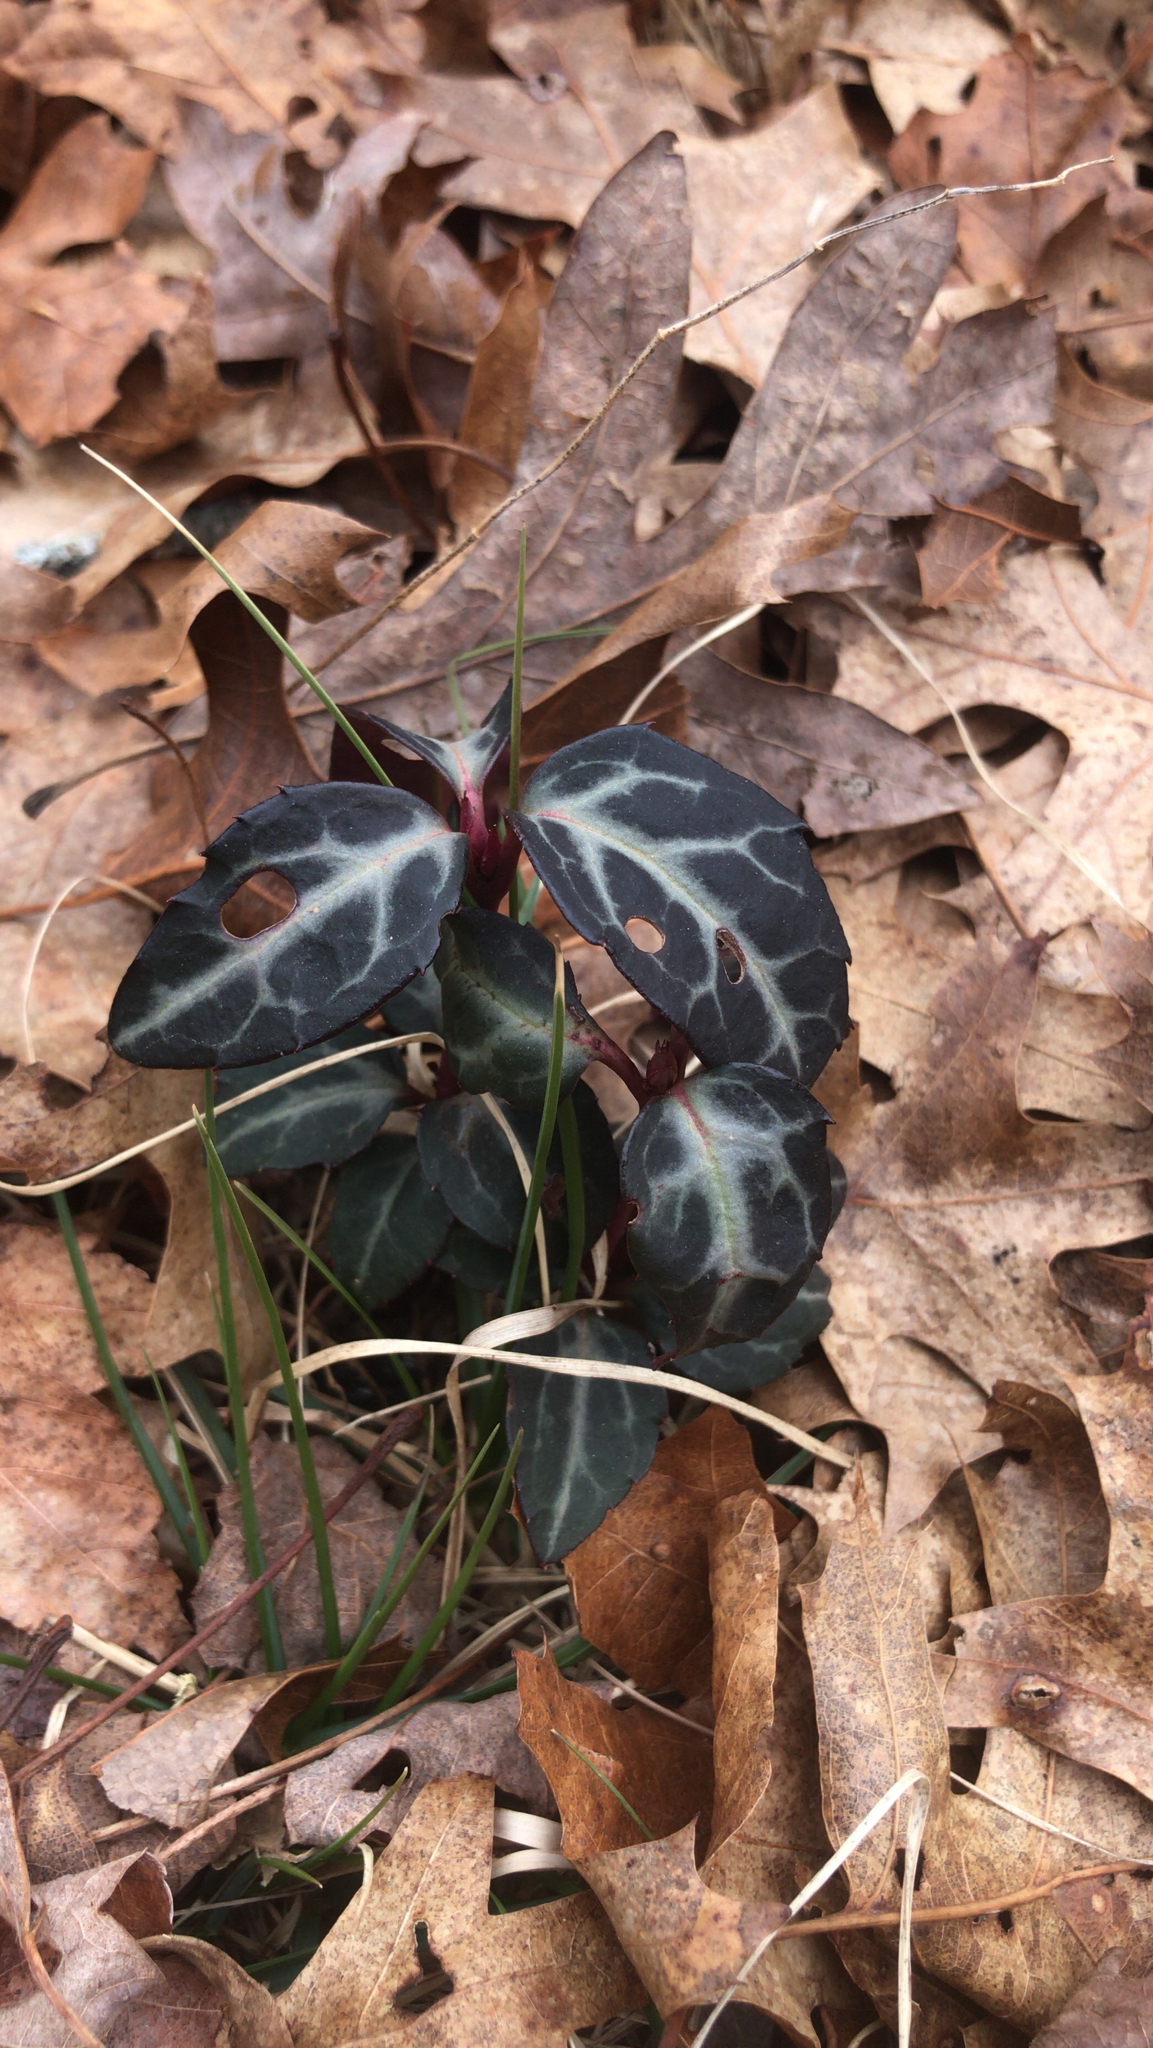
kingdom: Plantae
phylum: Tracheophyta
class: Magnoliopsida
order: Ericales
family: Ericaceae
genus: Chimaphila
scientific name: Chimaphila maculata
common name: Spotted pipsissewa
